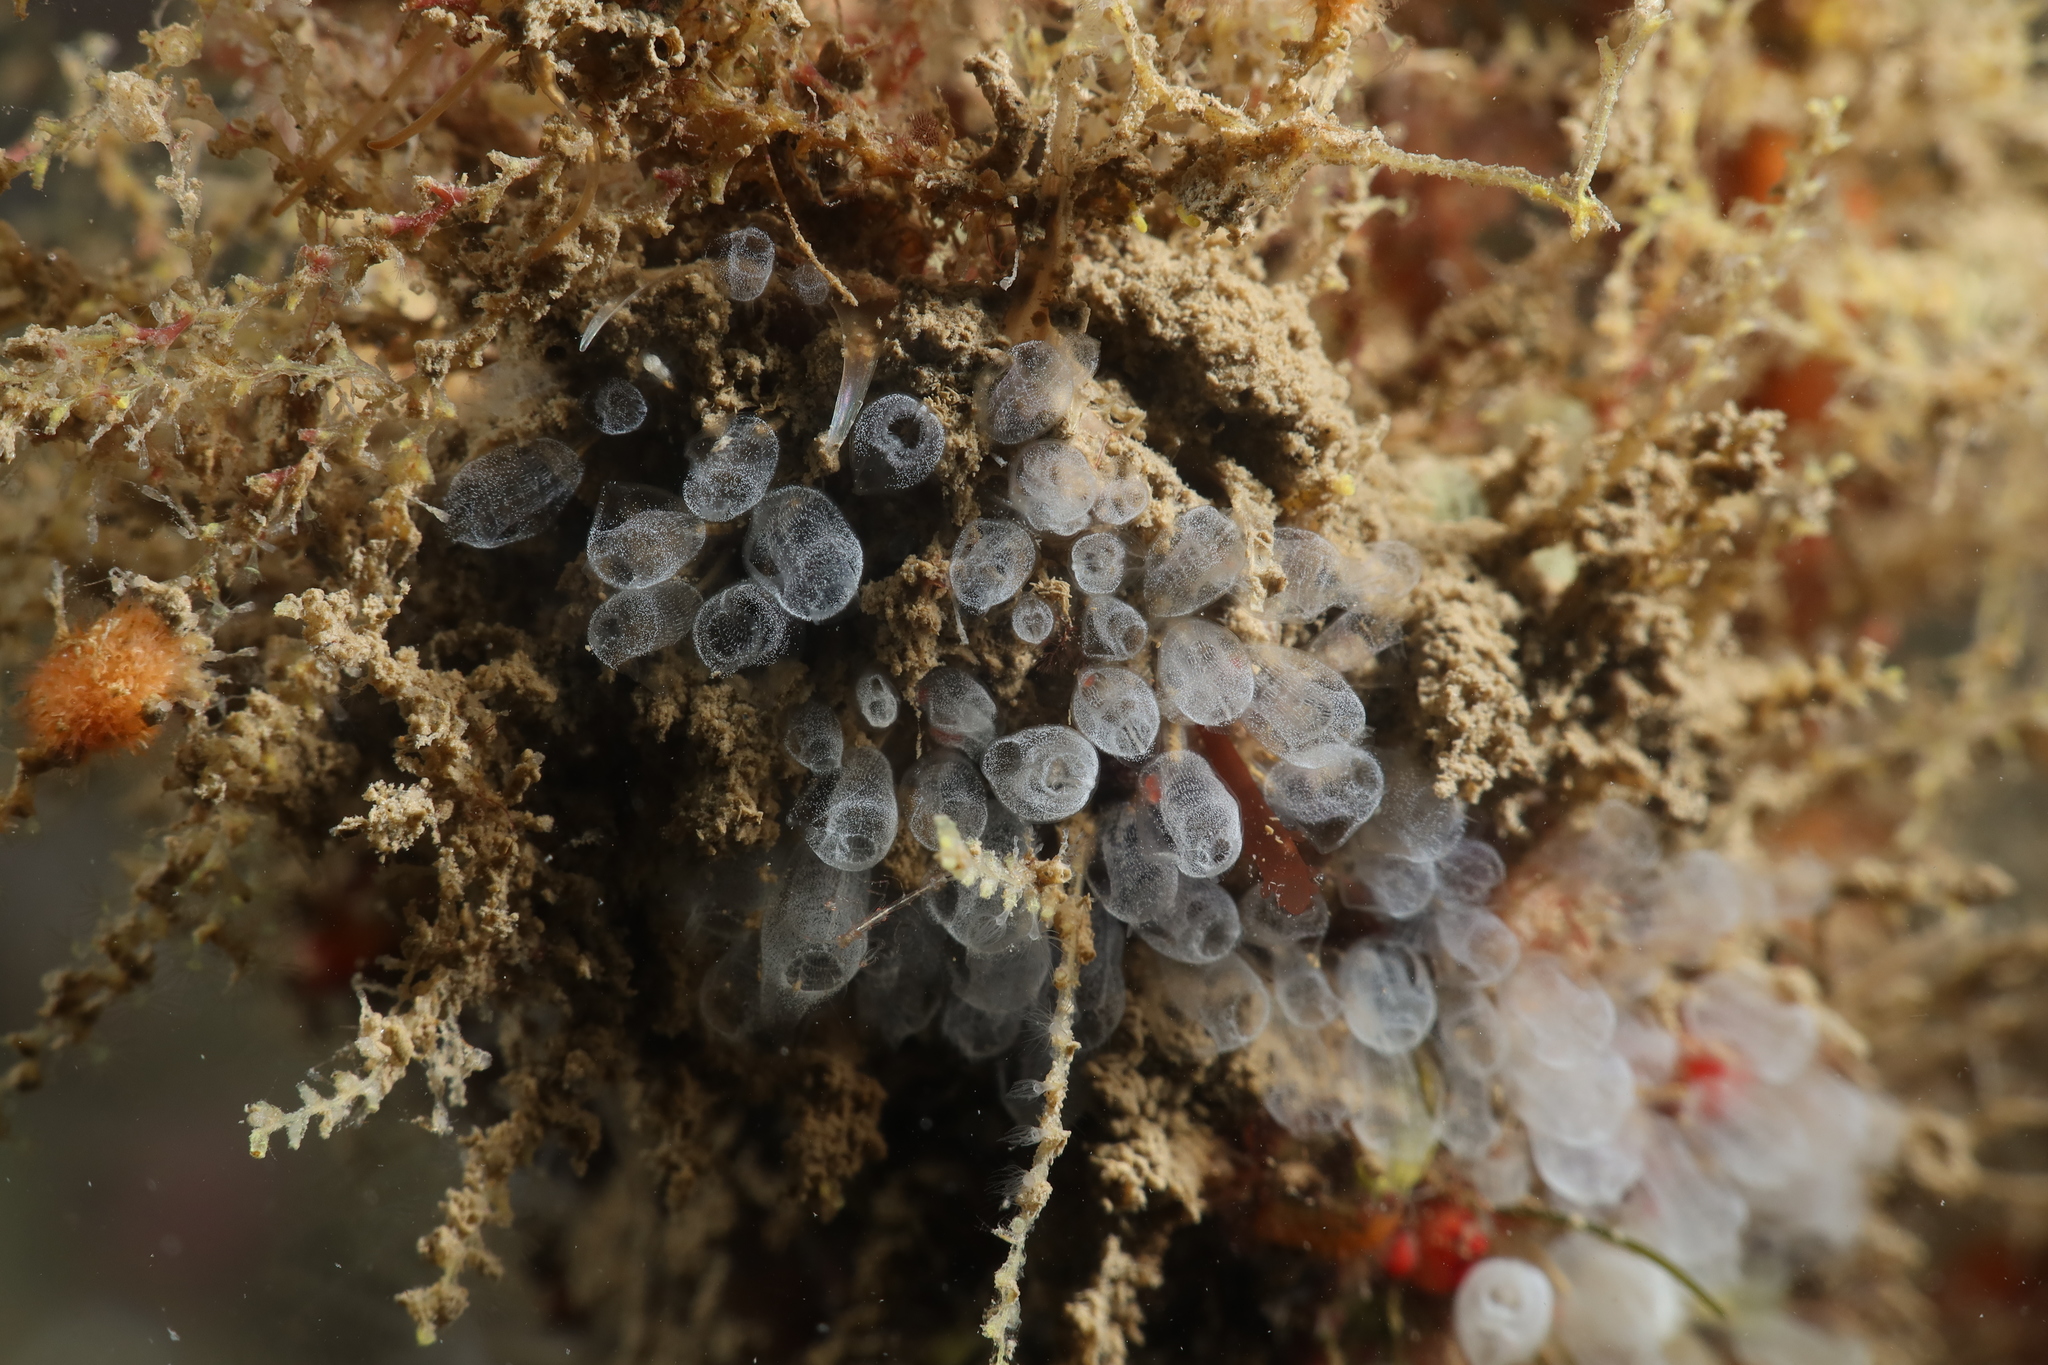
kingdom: Animalia
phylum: Chordata
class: Ascidiacea
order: Aplousobranchia
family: Clavelinidae
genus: Pycnoclavella
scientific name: Pycnoclavella atlantica
